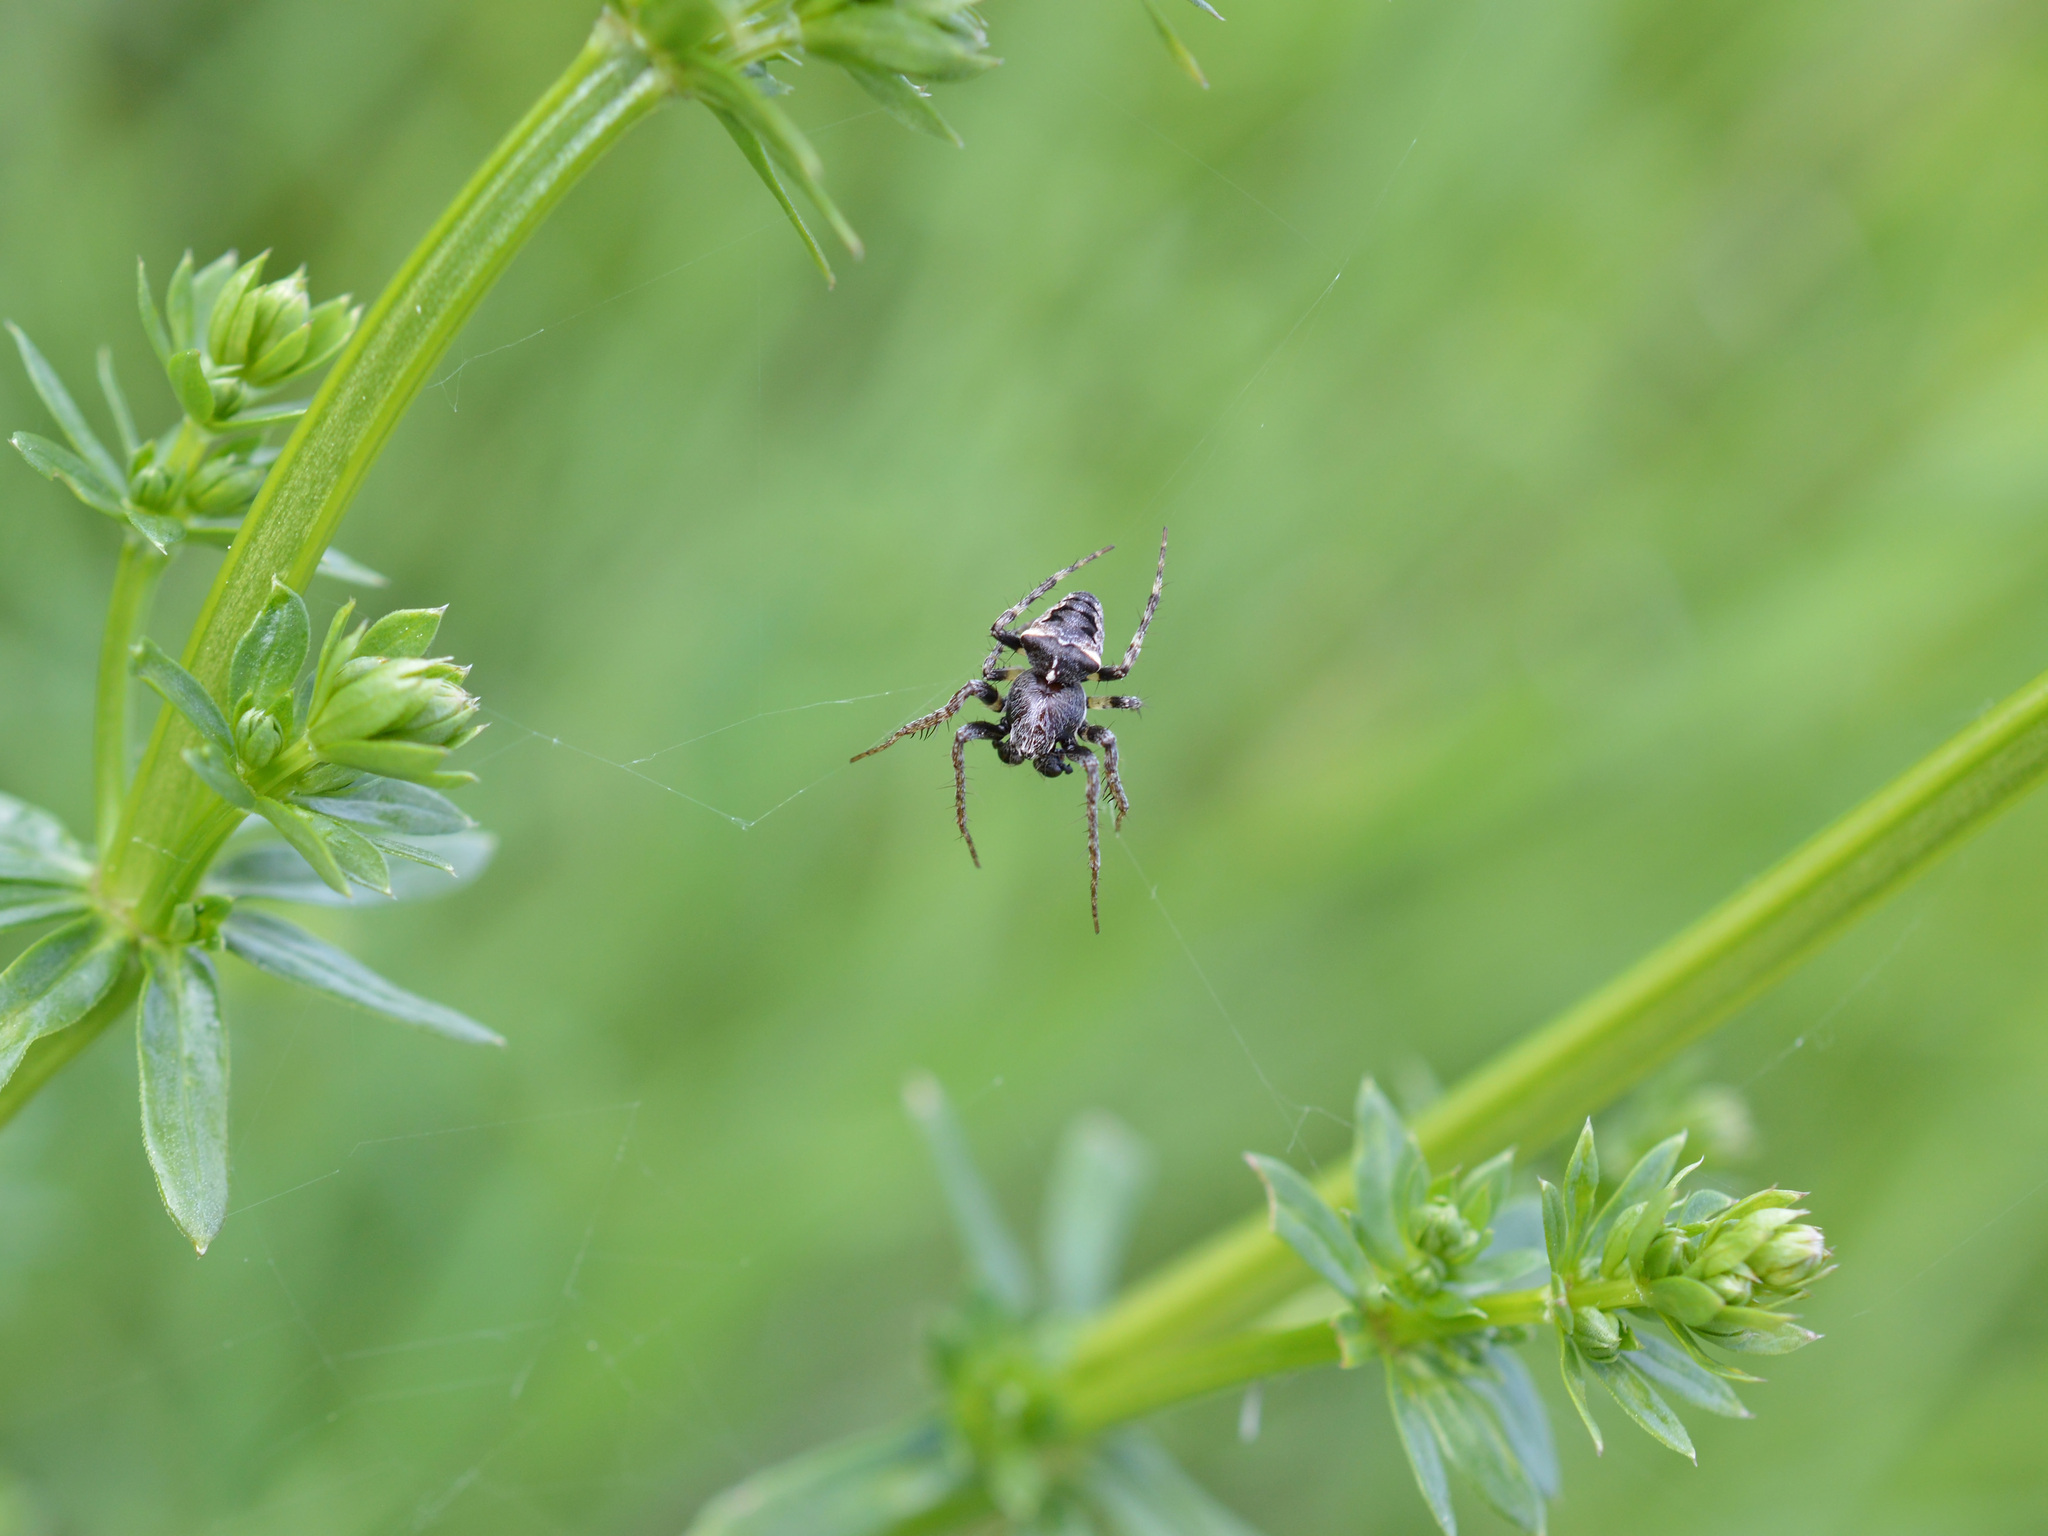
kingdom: Animalia
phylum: Arthropoda
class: Arachnida
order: Araneae
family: Araneidae
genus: Gibbaranea
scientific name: Gibbaranea bituberculata
